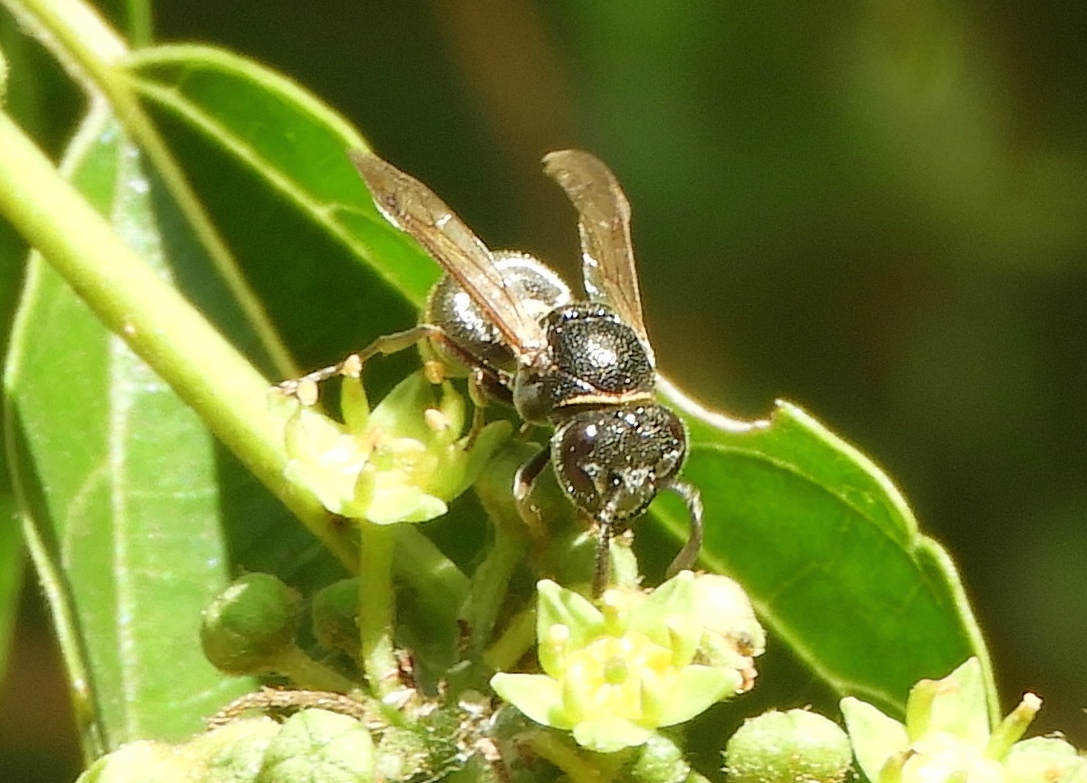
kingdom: Animalia
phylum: Arthropoda
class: Insecta
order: Hymenoptera
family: Vespidae
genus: Brachygastra
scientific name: Brachygastra mellifica
